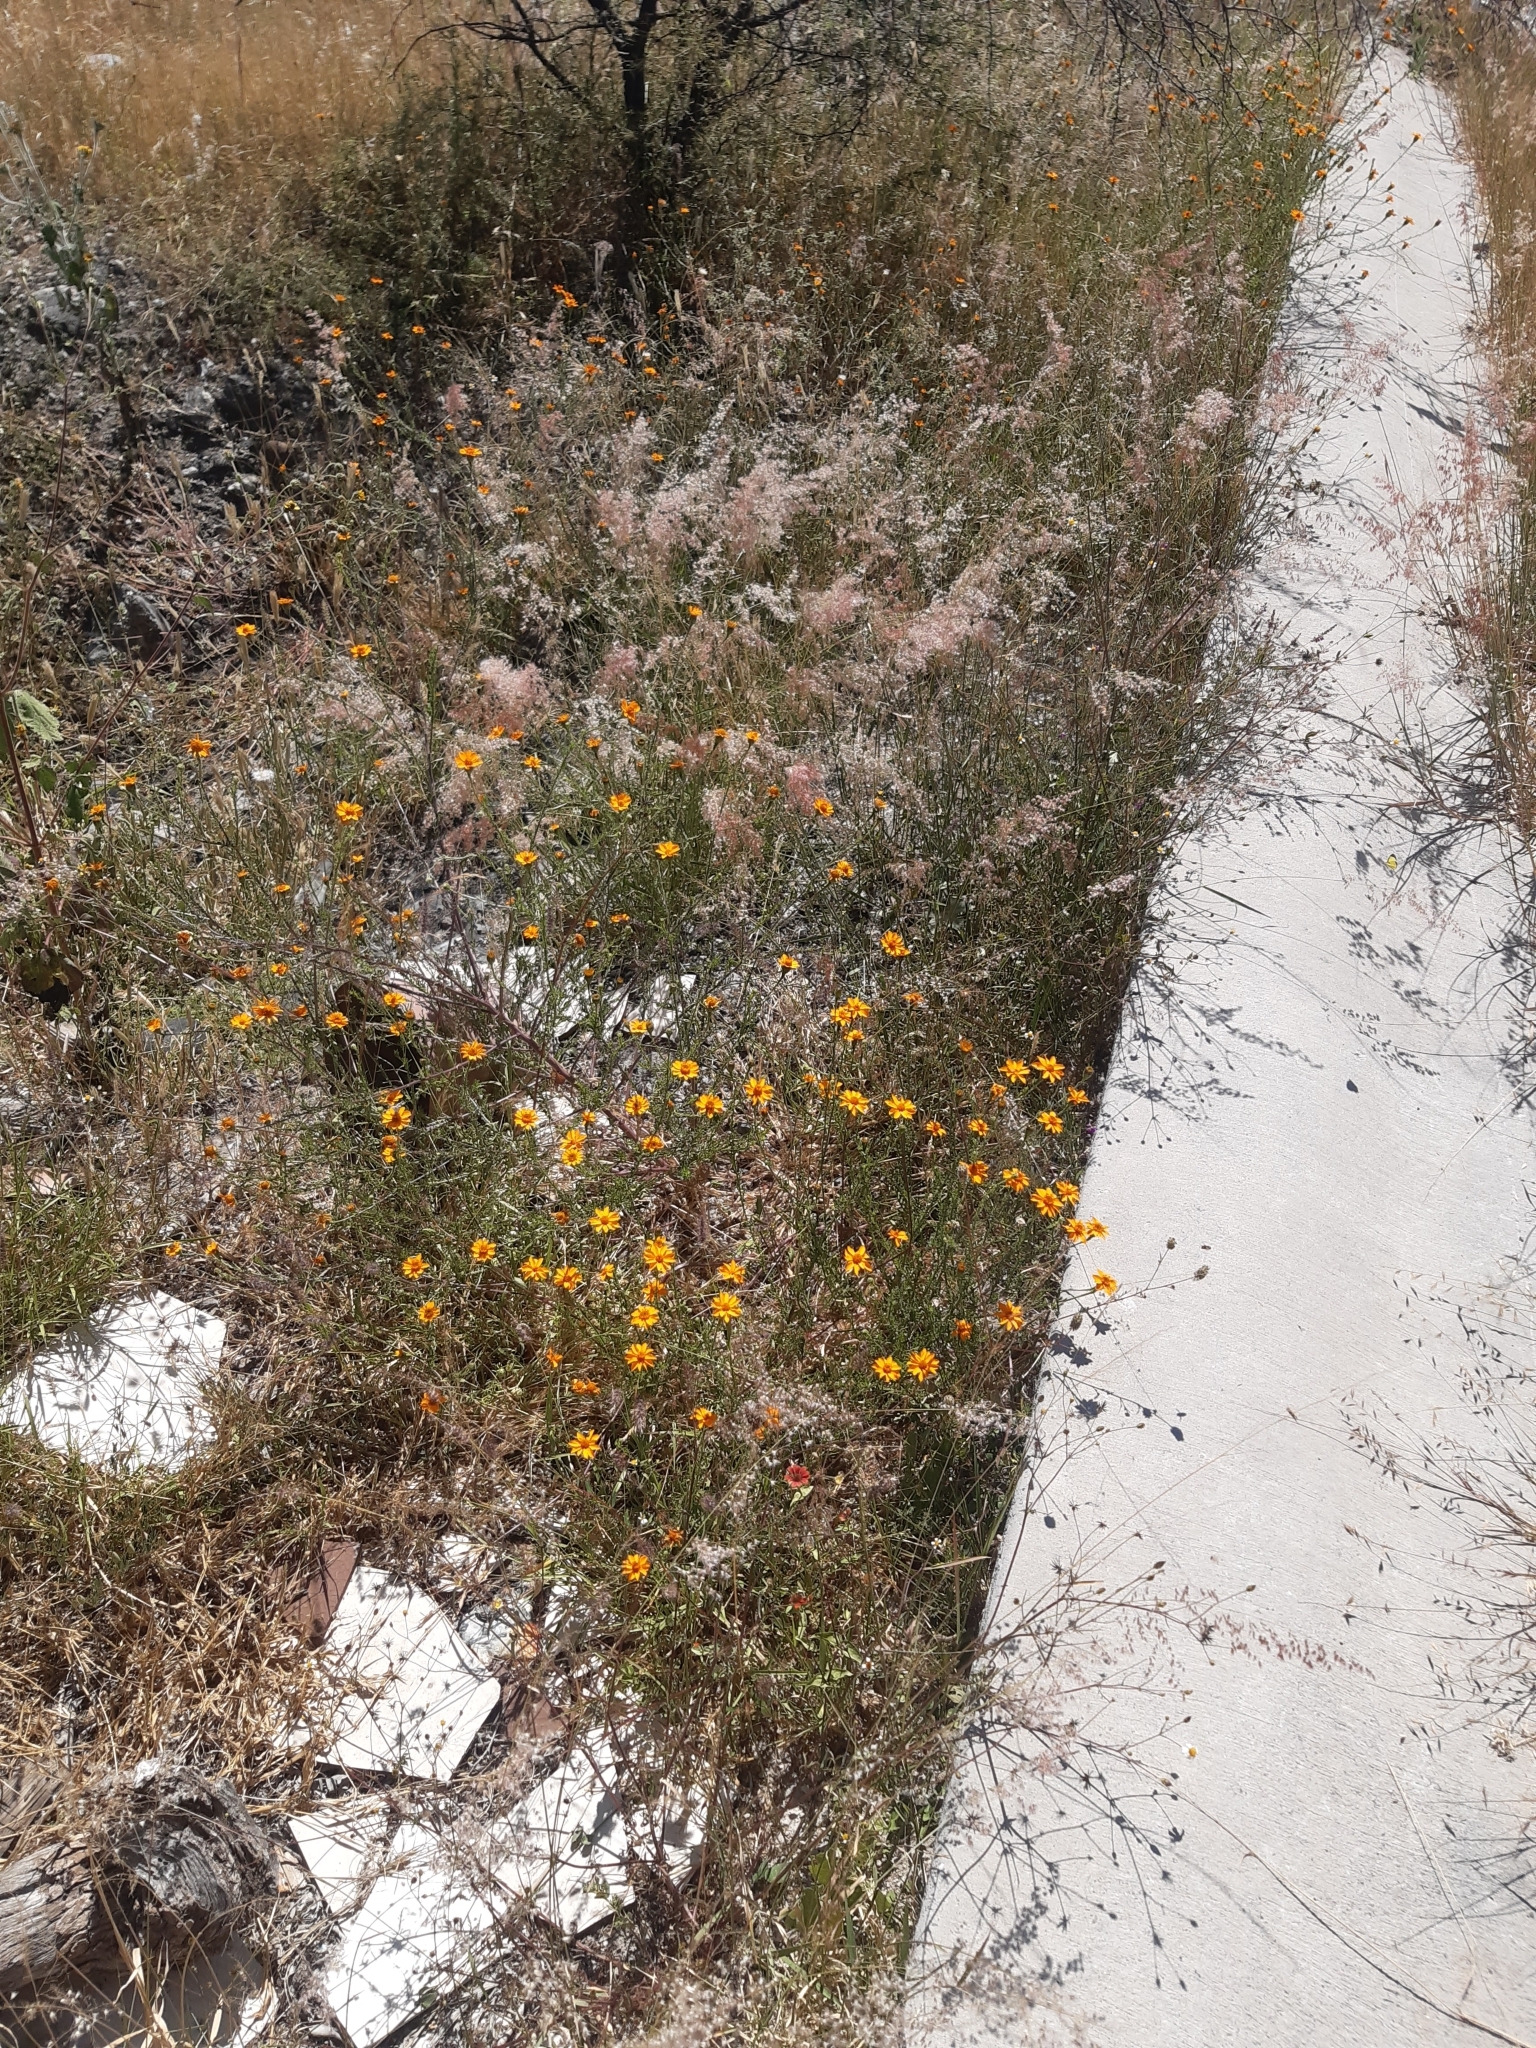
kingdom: Plantae
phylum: Tracheophyta
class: Magnoliopsida
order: Asterales
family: Asteraceae
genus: Adenophyllum
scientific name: Adenophyllum cancellatum
